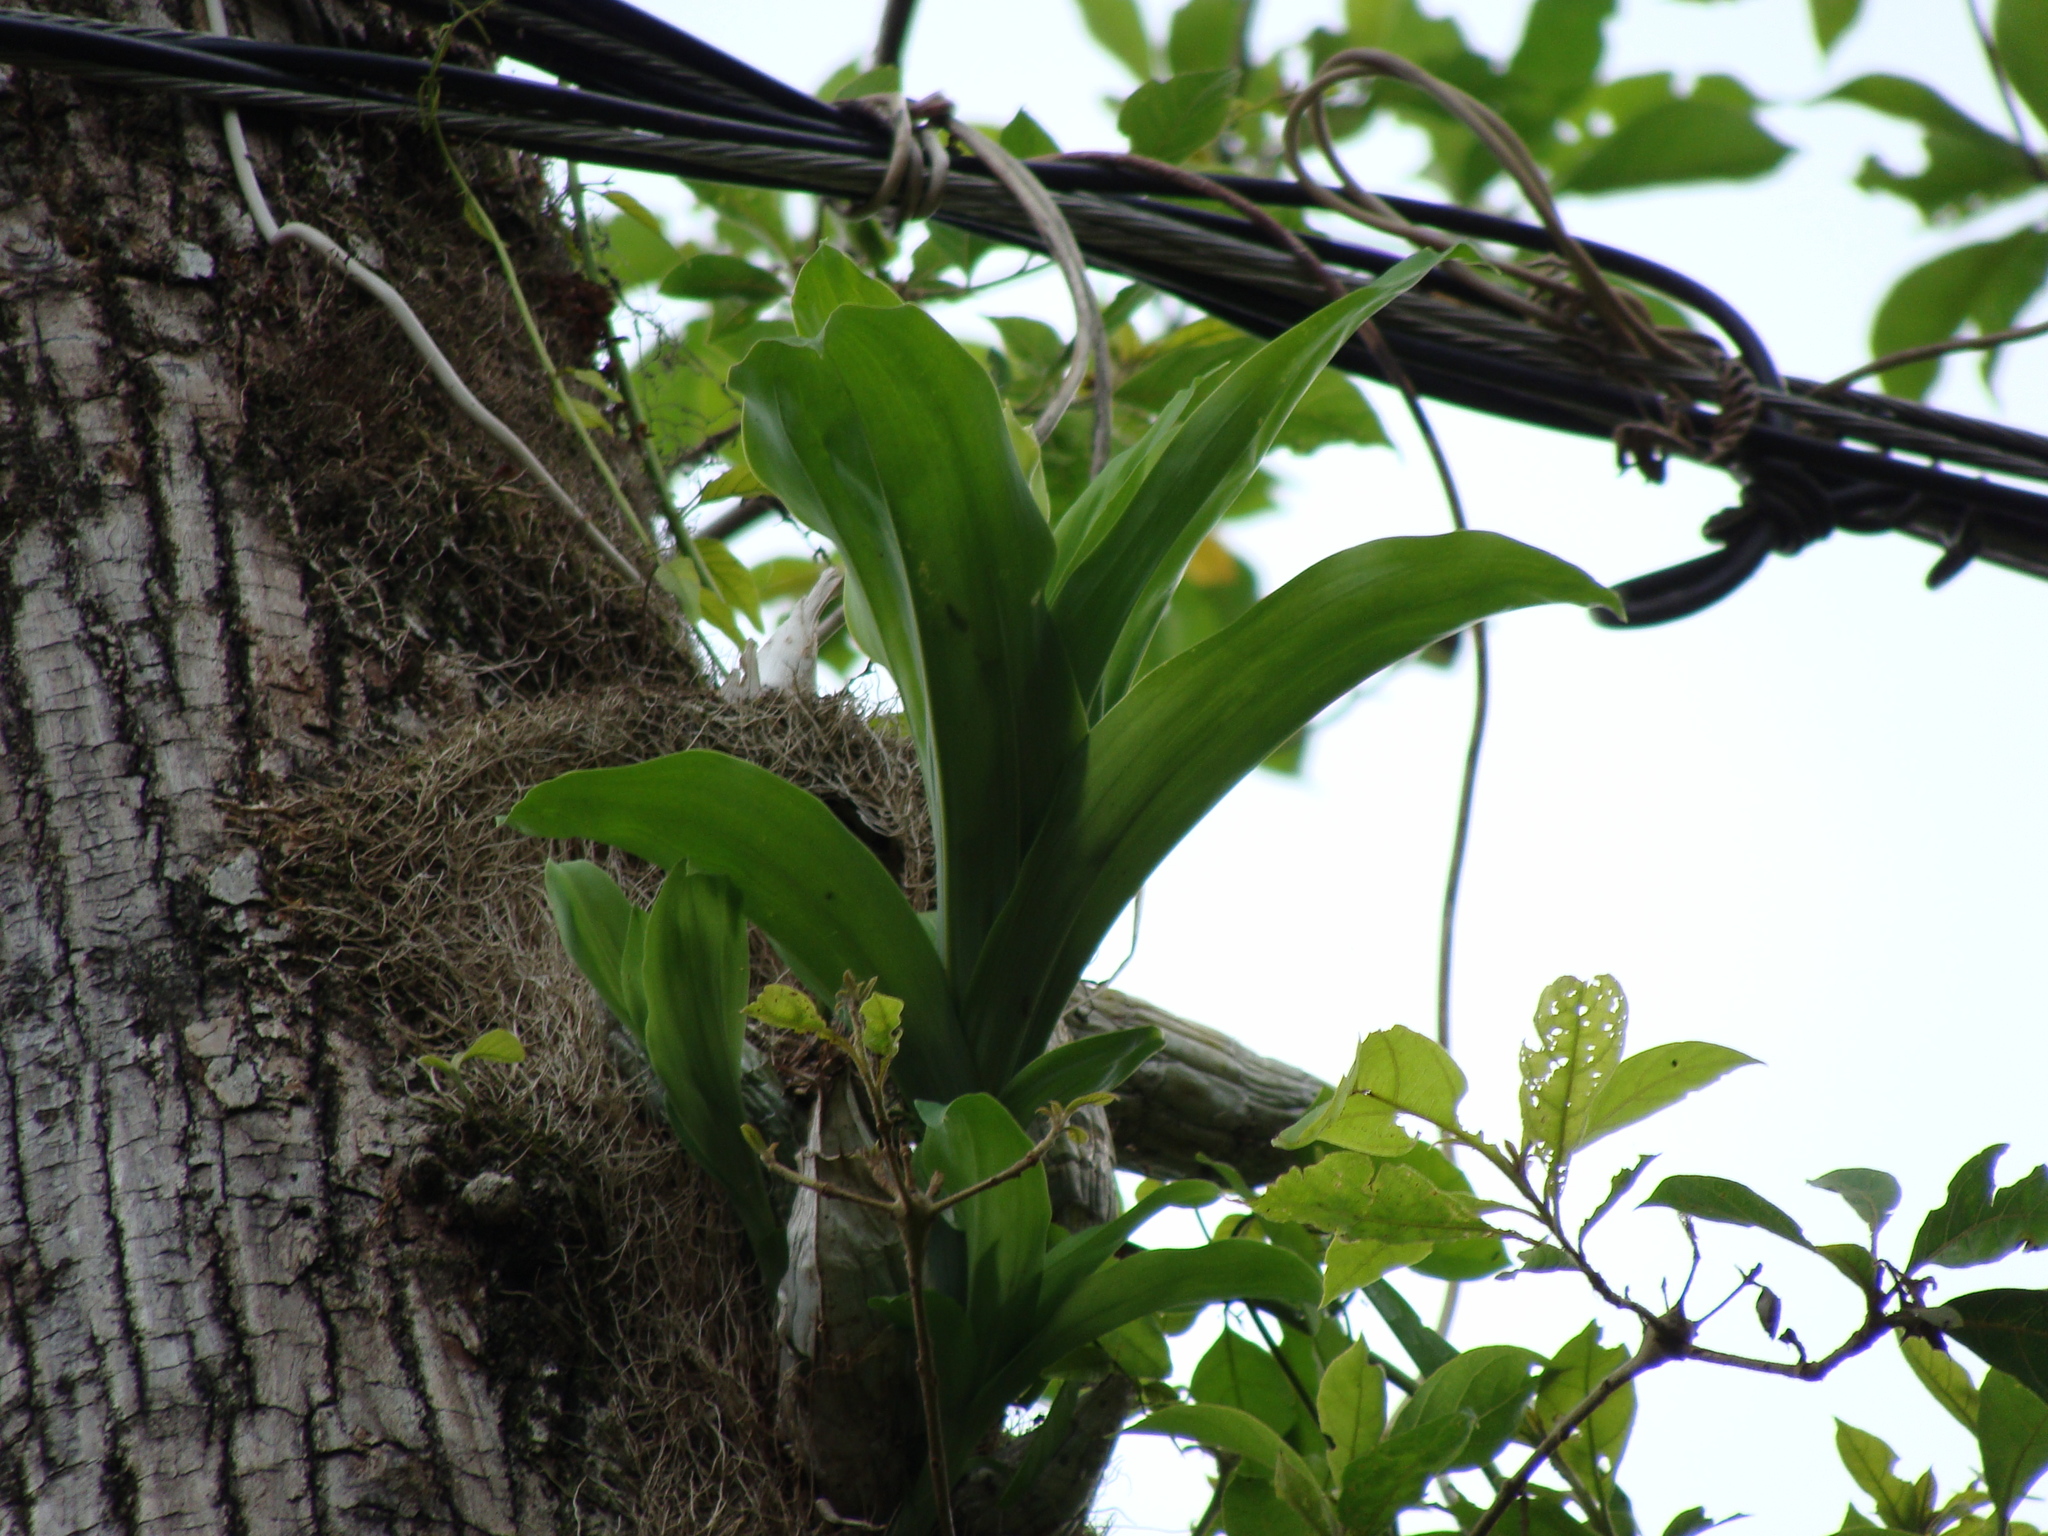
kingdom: Plantae
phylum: Tracheophyta
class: Liliopsida
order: Asparagales
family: Orchidaceae
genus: Catasetum
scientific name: Catasetum integerrimum
